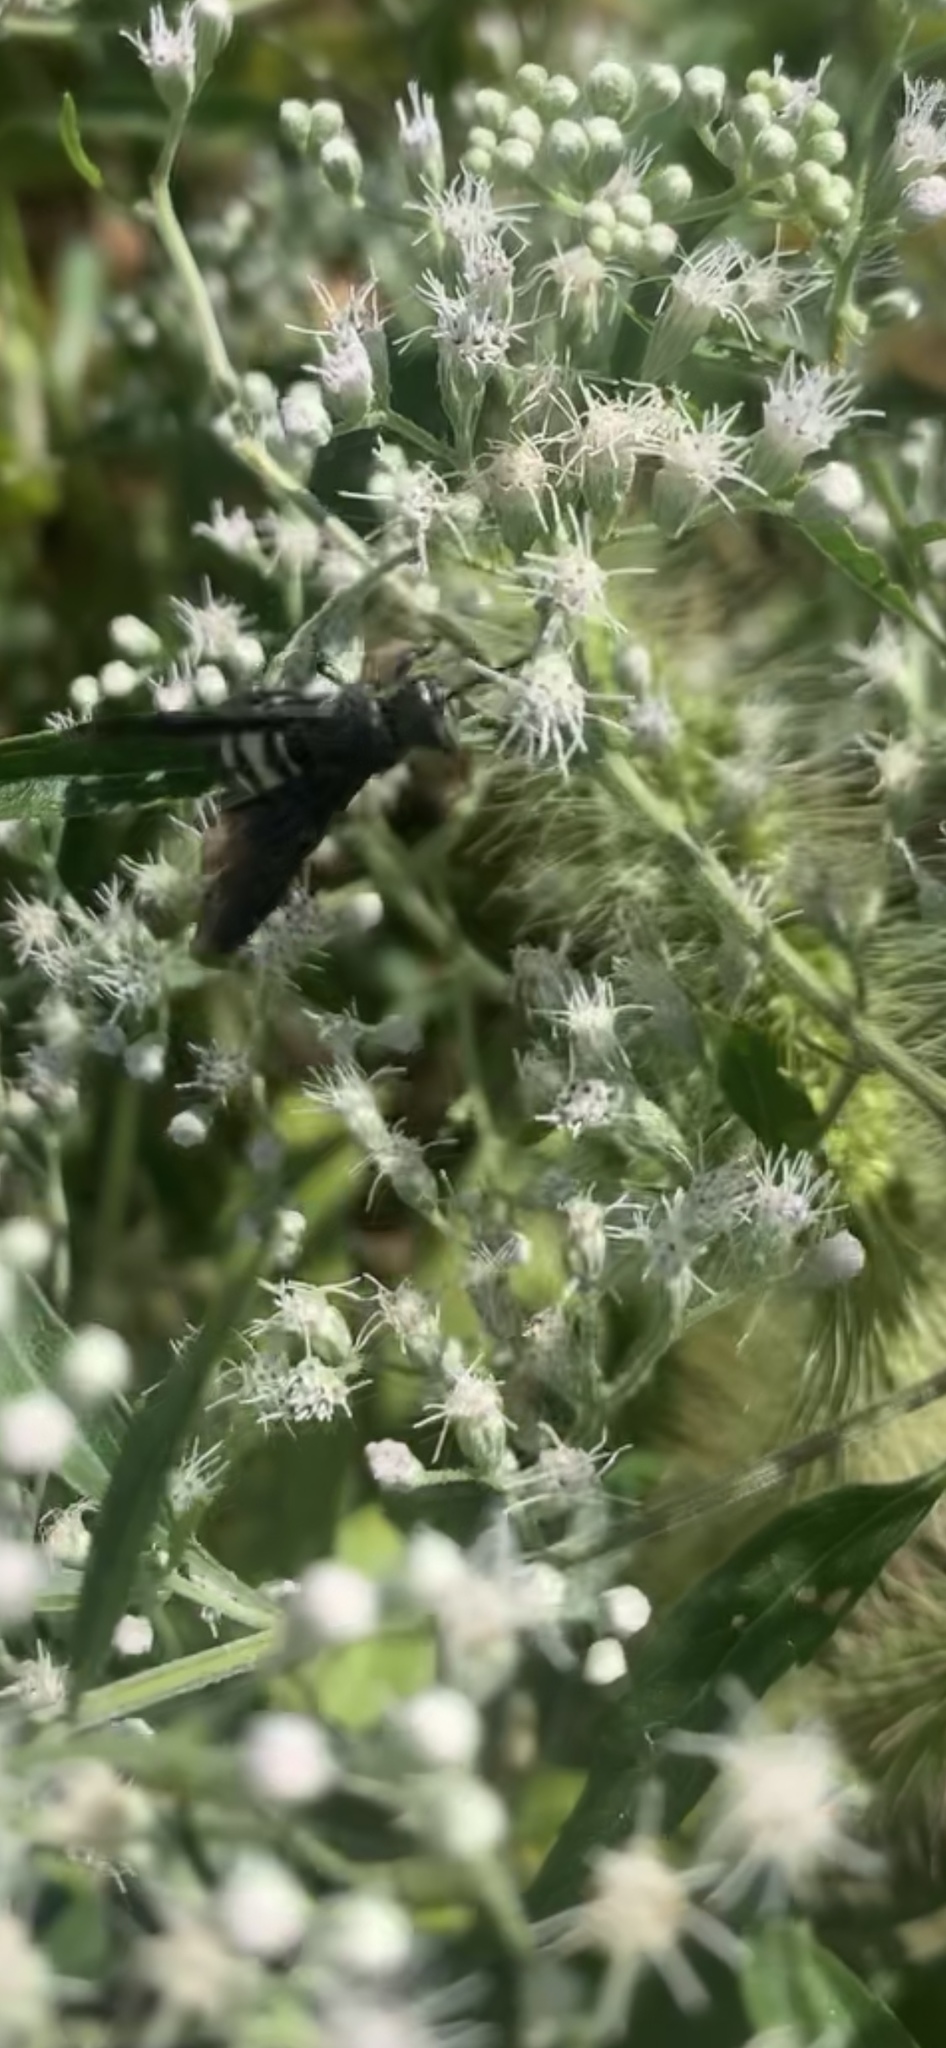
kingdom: Animalia
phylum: Arthropoda
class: Insecta
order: Hymenoptera
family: Scoliidae
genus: Scolia
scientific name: Scolia bicincta
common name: Double-banded scoliid wasp
